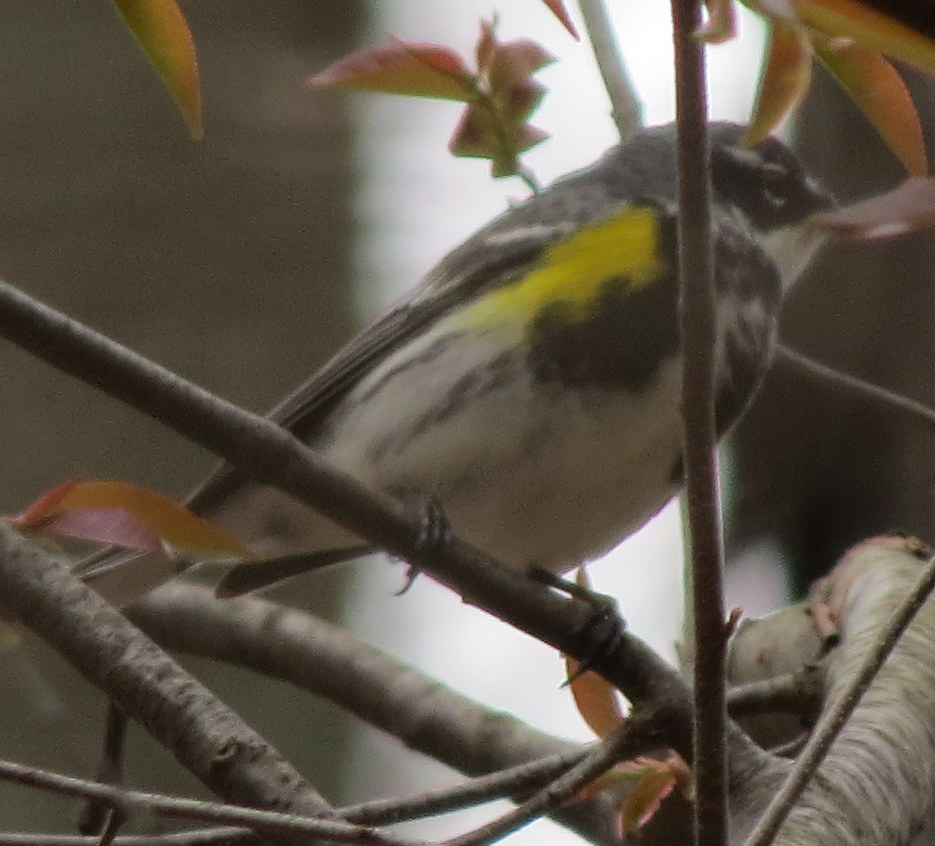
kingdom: Animalia
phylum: Chordata
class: Aves
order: Passeriformes
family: Parulidae
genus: Setophaga
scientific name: Setophaga coronata
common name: Myrtle warbler
